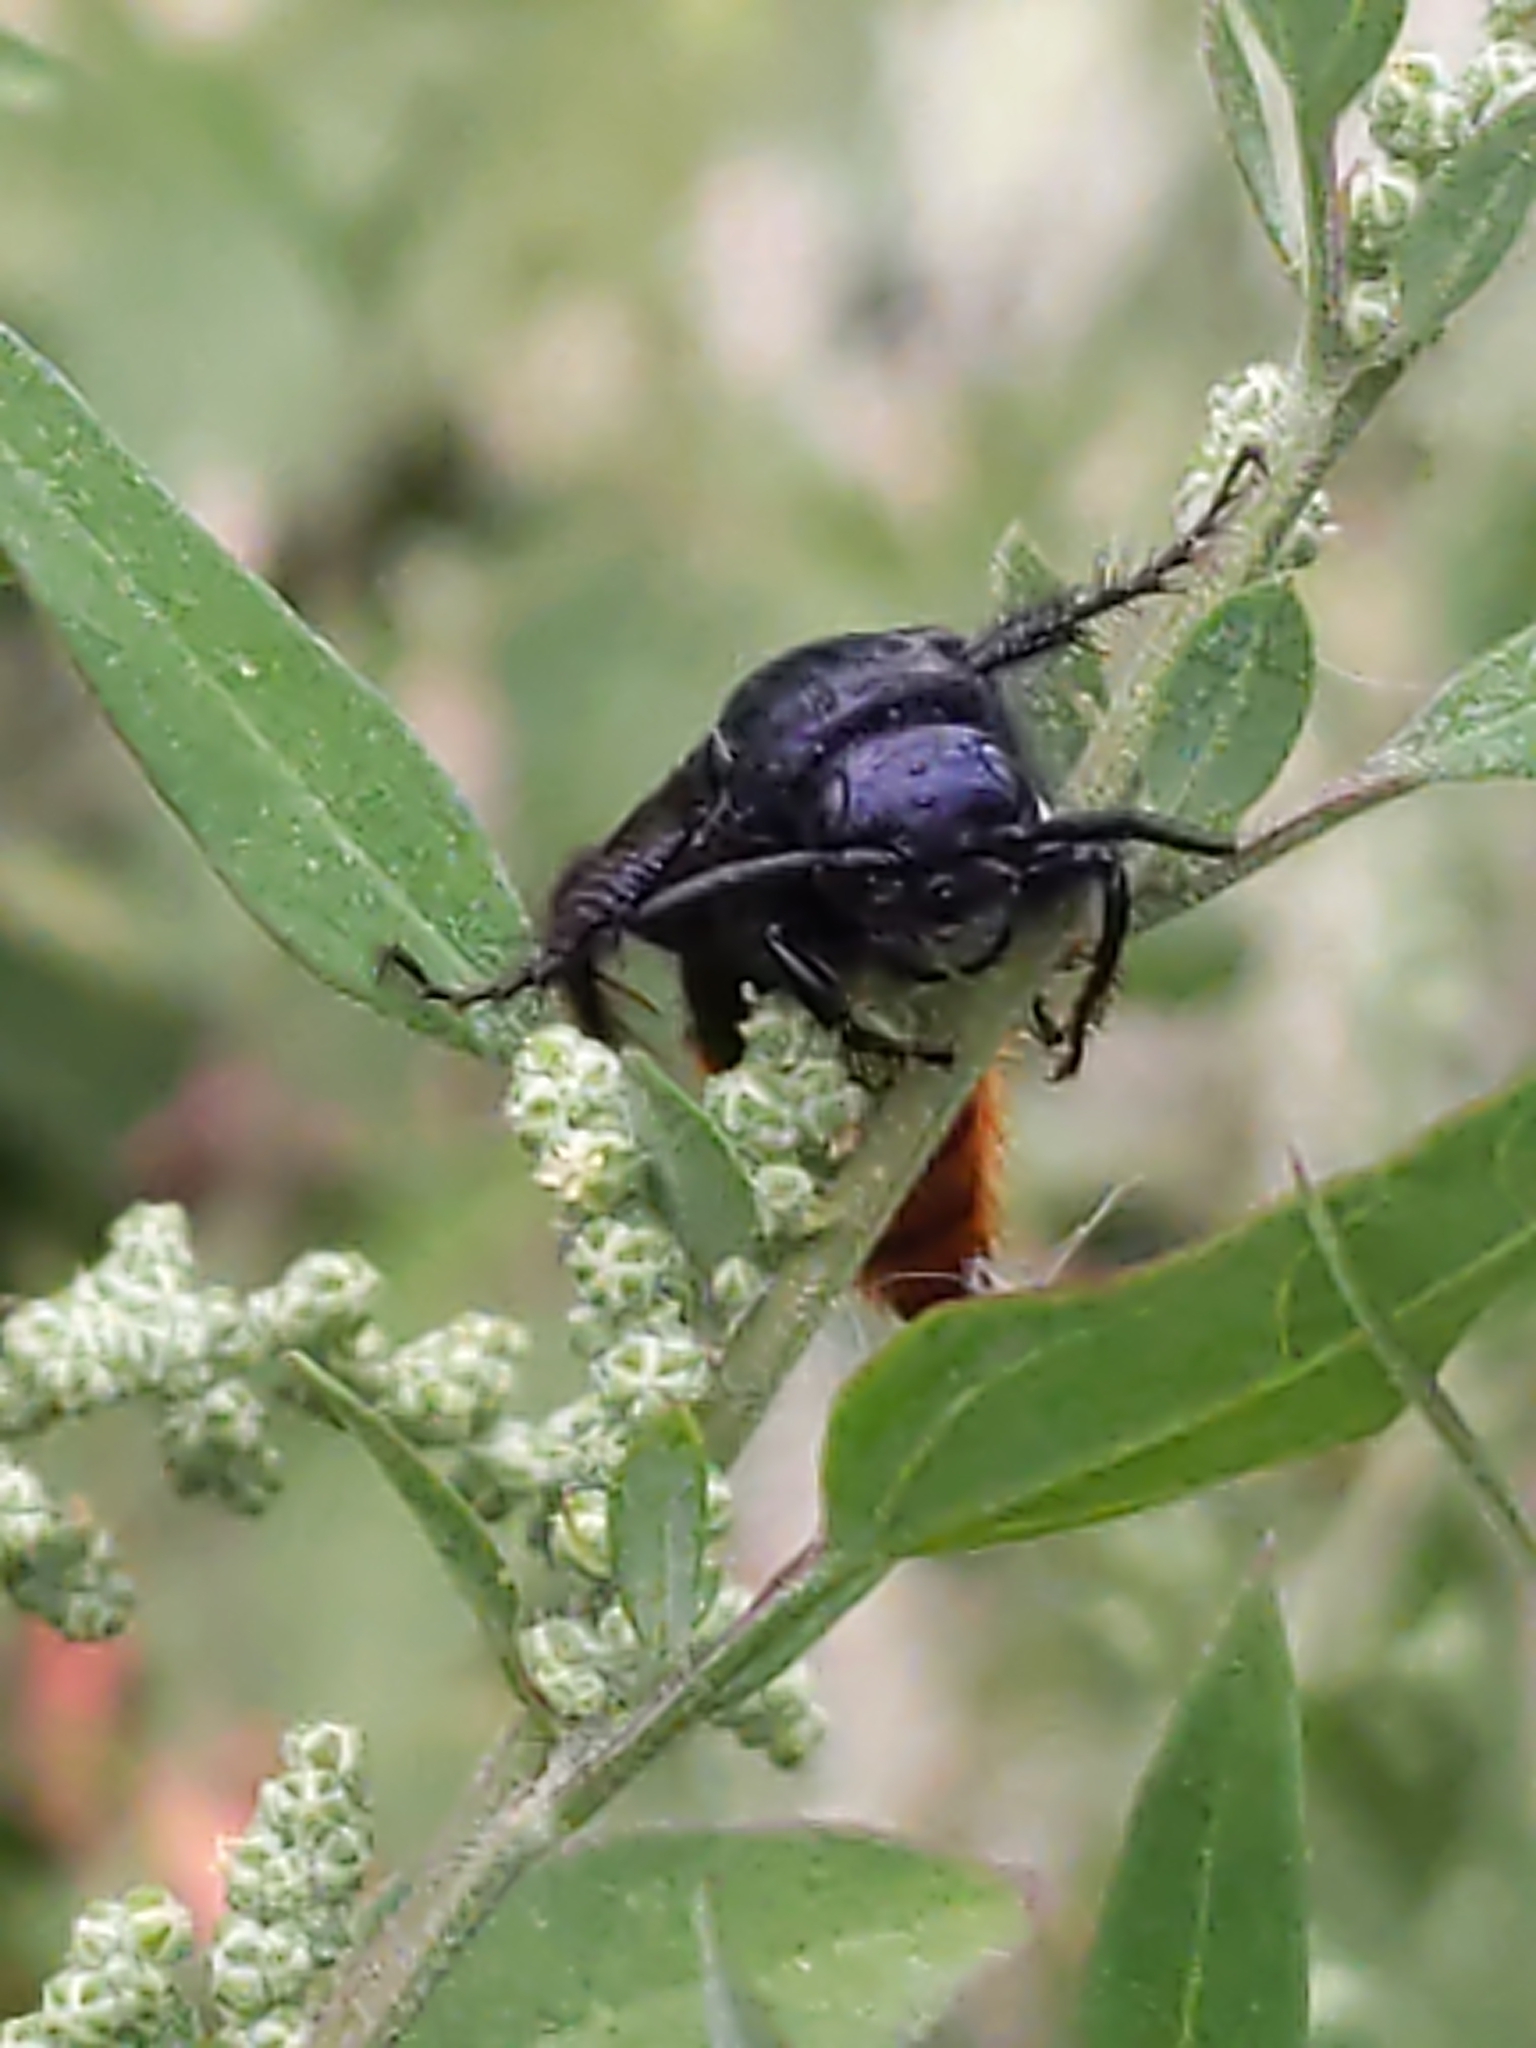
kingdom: Animalia
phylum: Arthropoda
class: Insecta
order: Hymenoptera
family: Scoliidae
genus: Scolia
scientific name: Scolia dubia
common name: Blue-winged scoliid wasp
